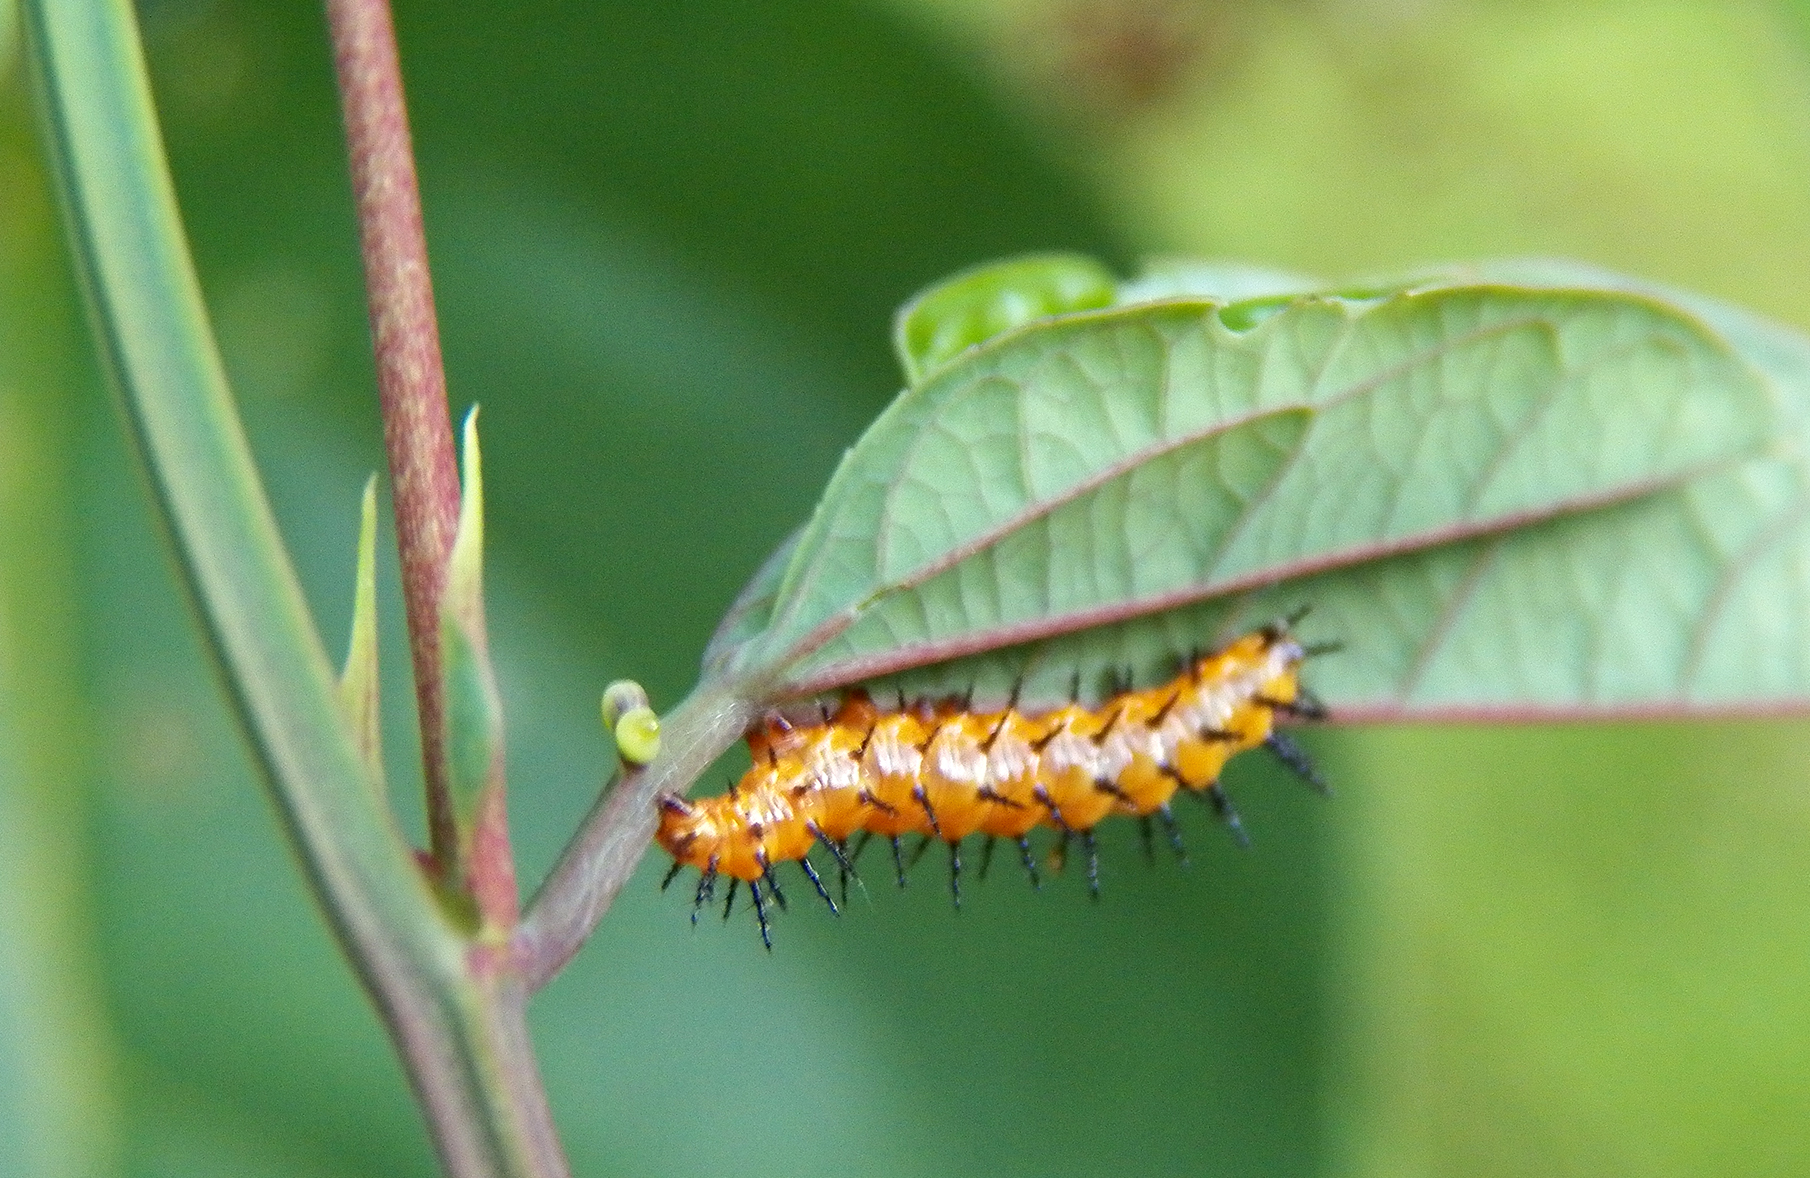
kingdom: Animalia
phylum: Arthropoda
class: Insecta
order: Lepidoptera
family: Nymphalidae
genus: Dione
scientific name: Dione vanillae
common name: Gulf fritillary
